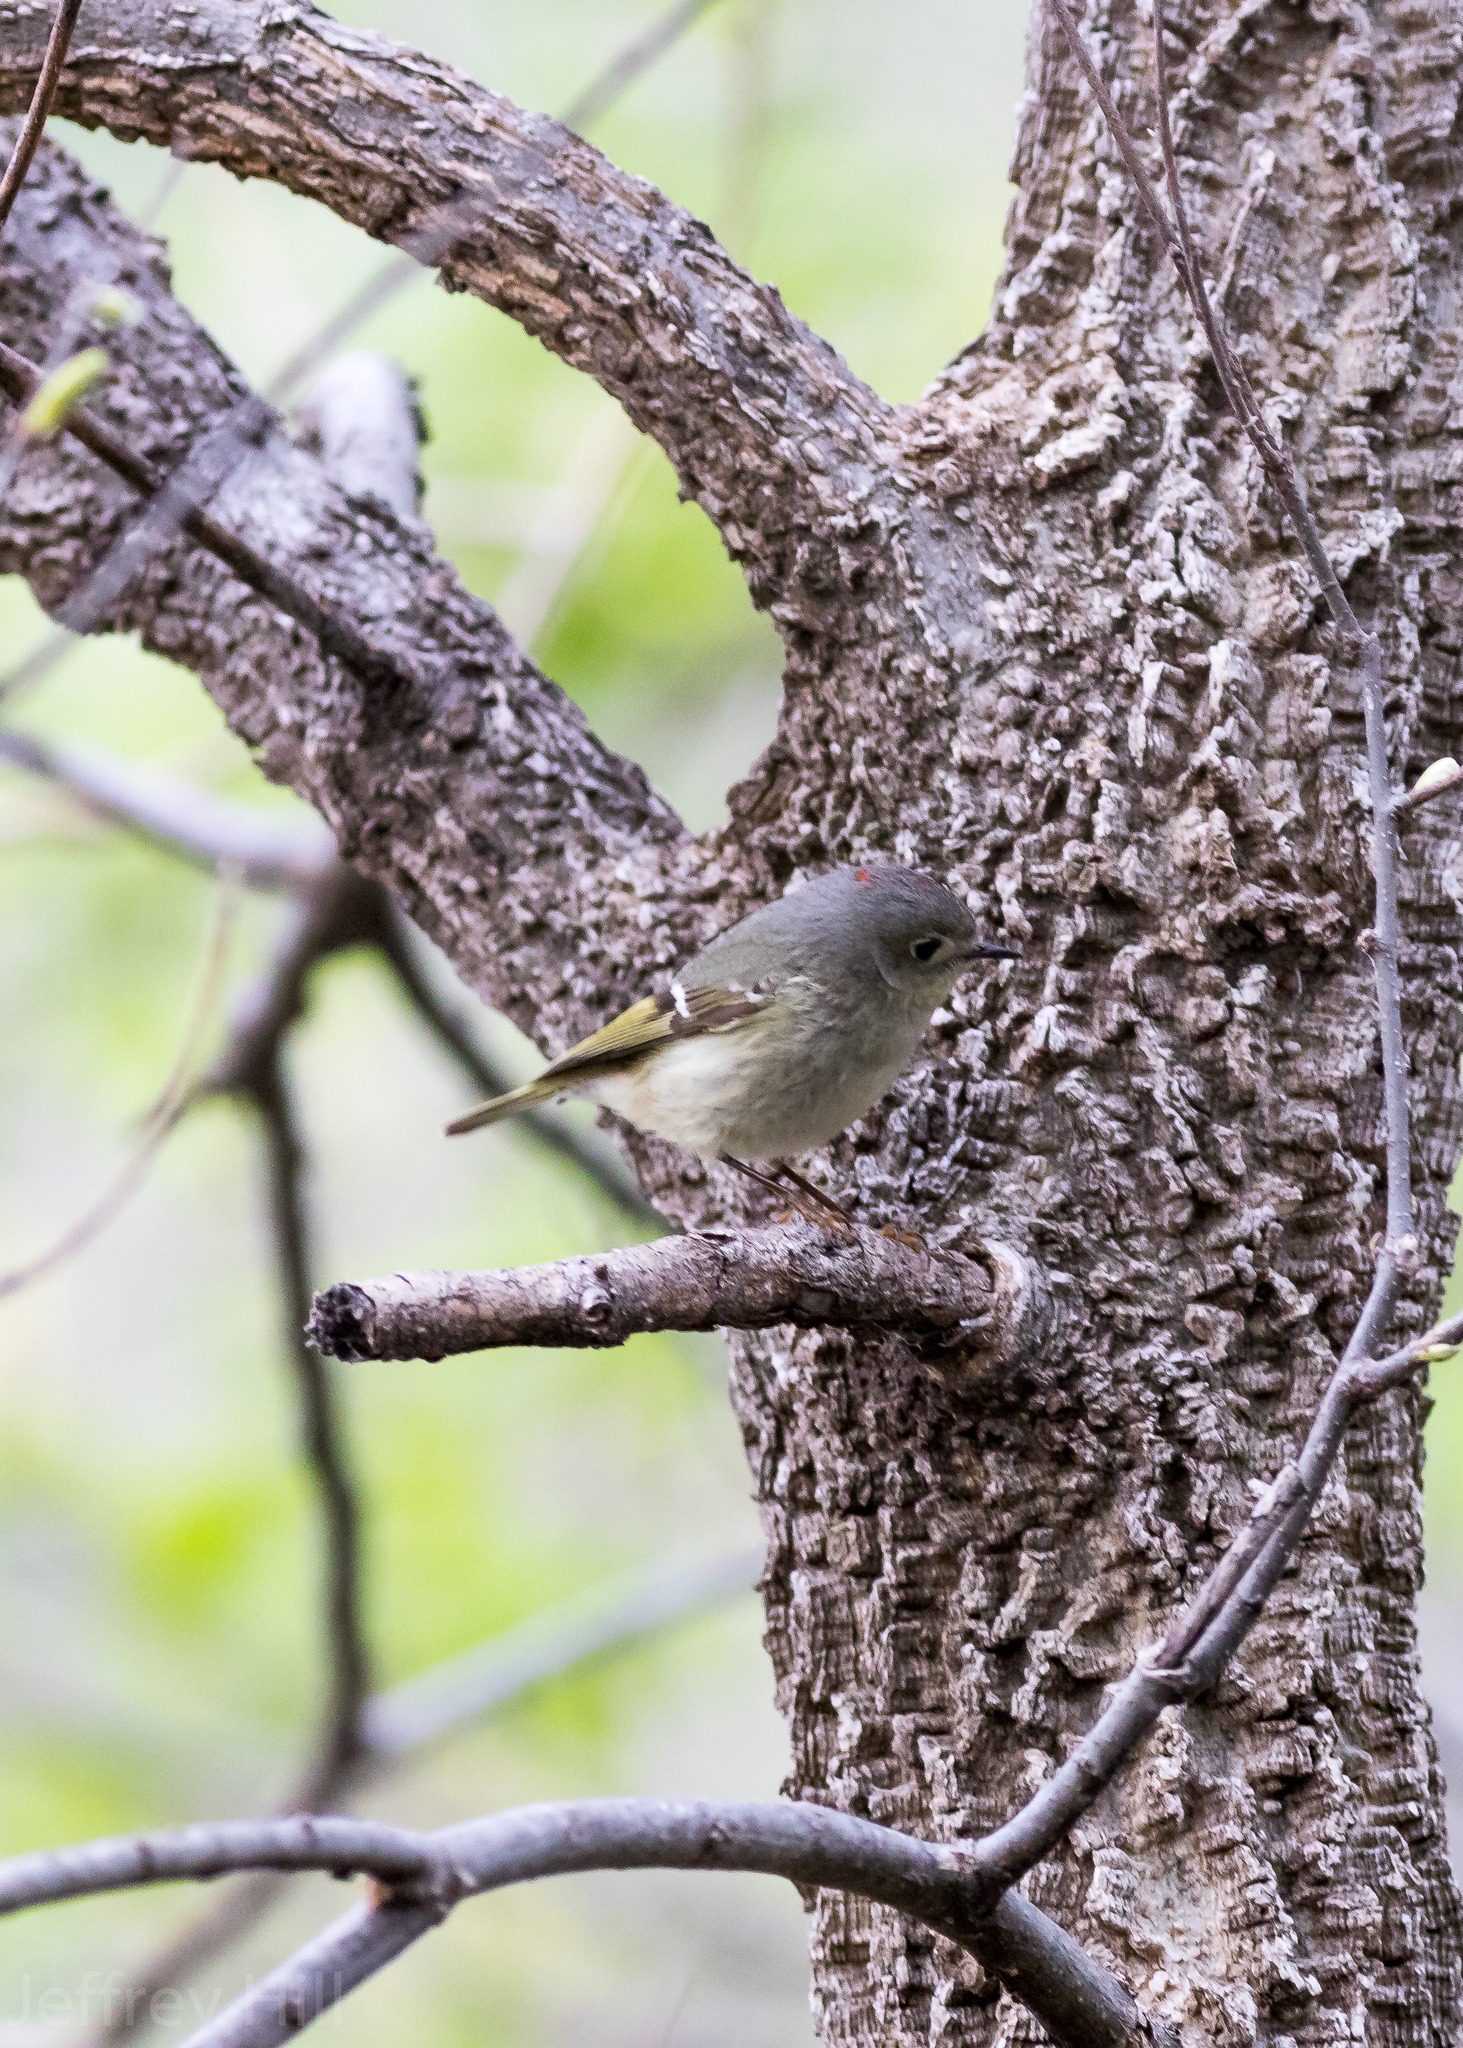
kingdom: Animalia
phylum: Chordata
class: Aves
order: Passeriformes
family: Regulidae
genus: Regulus
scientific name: Regulus calendula
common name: Ruby-crowned kinglet
